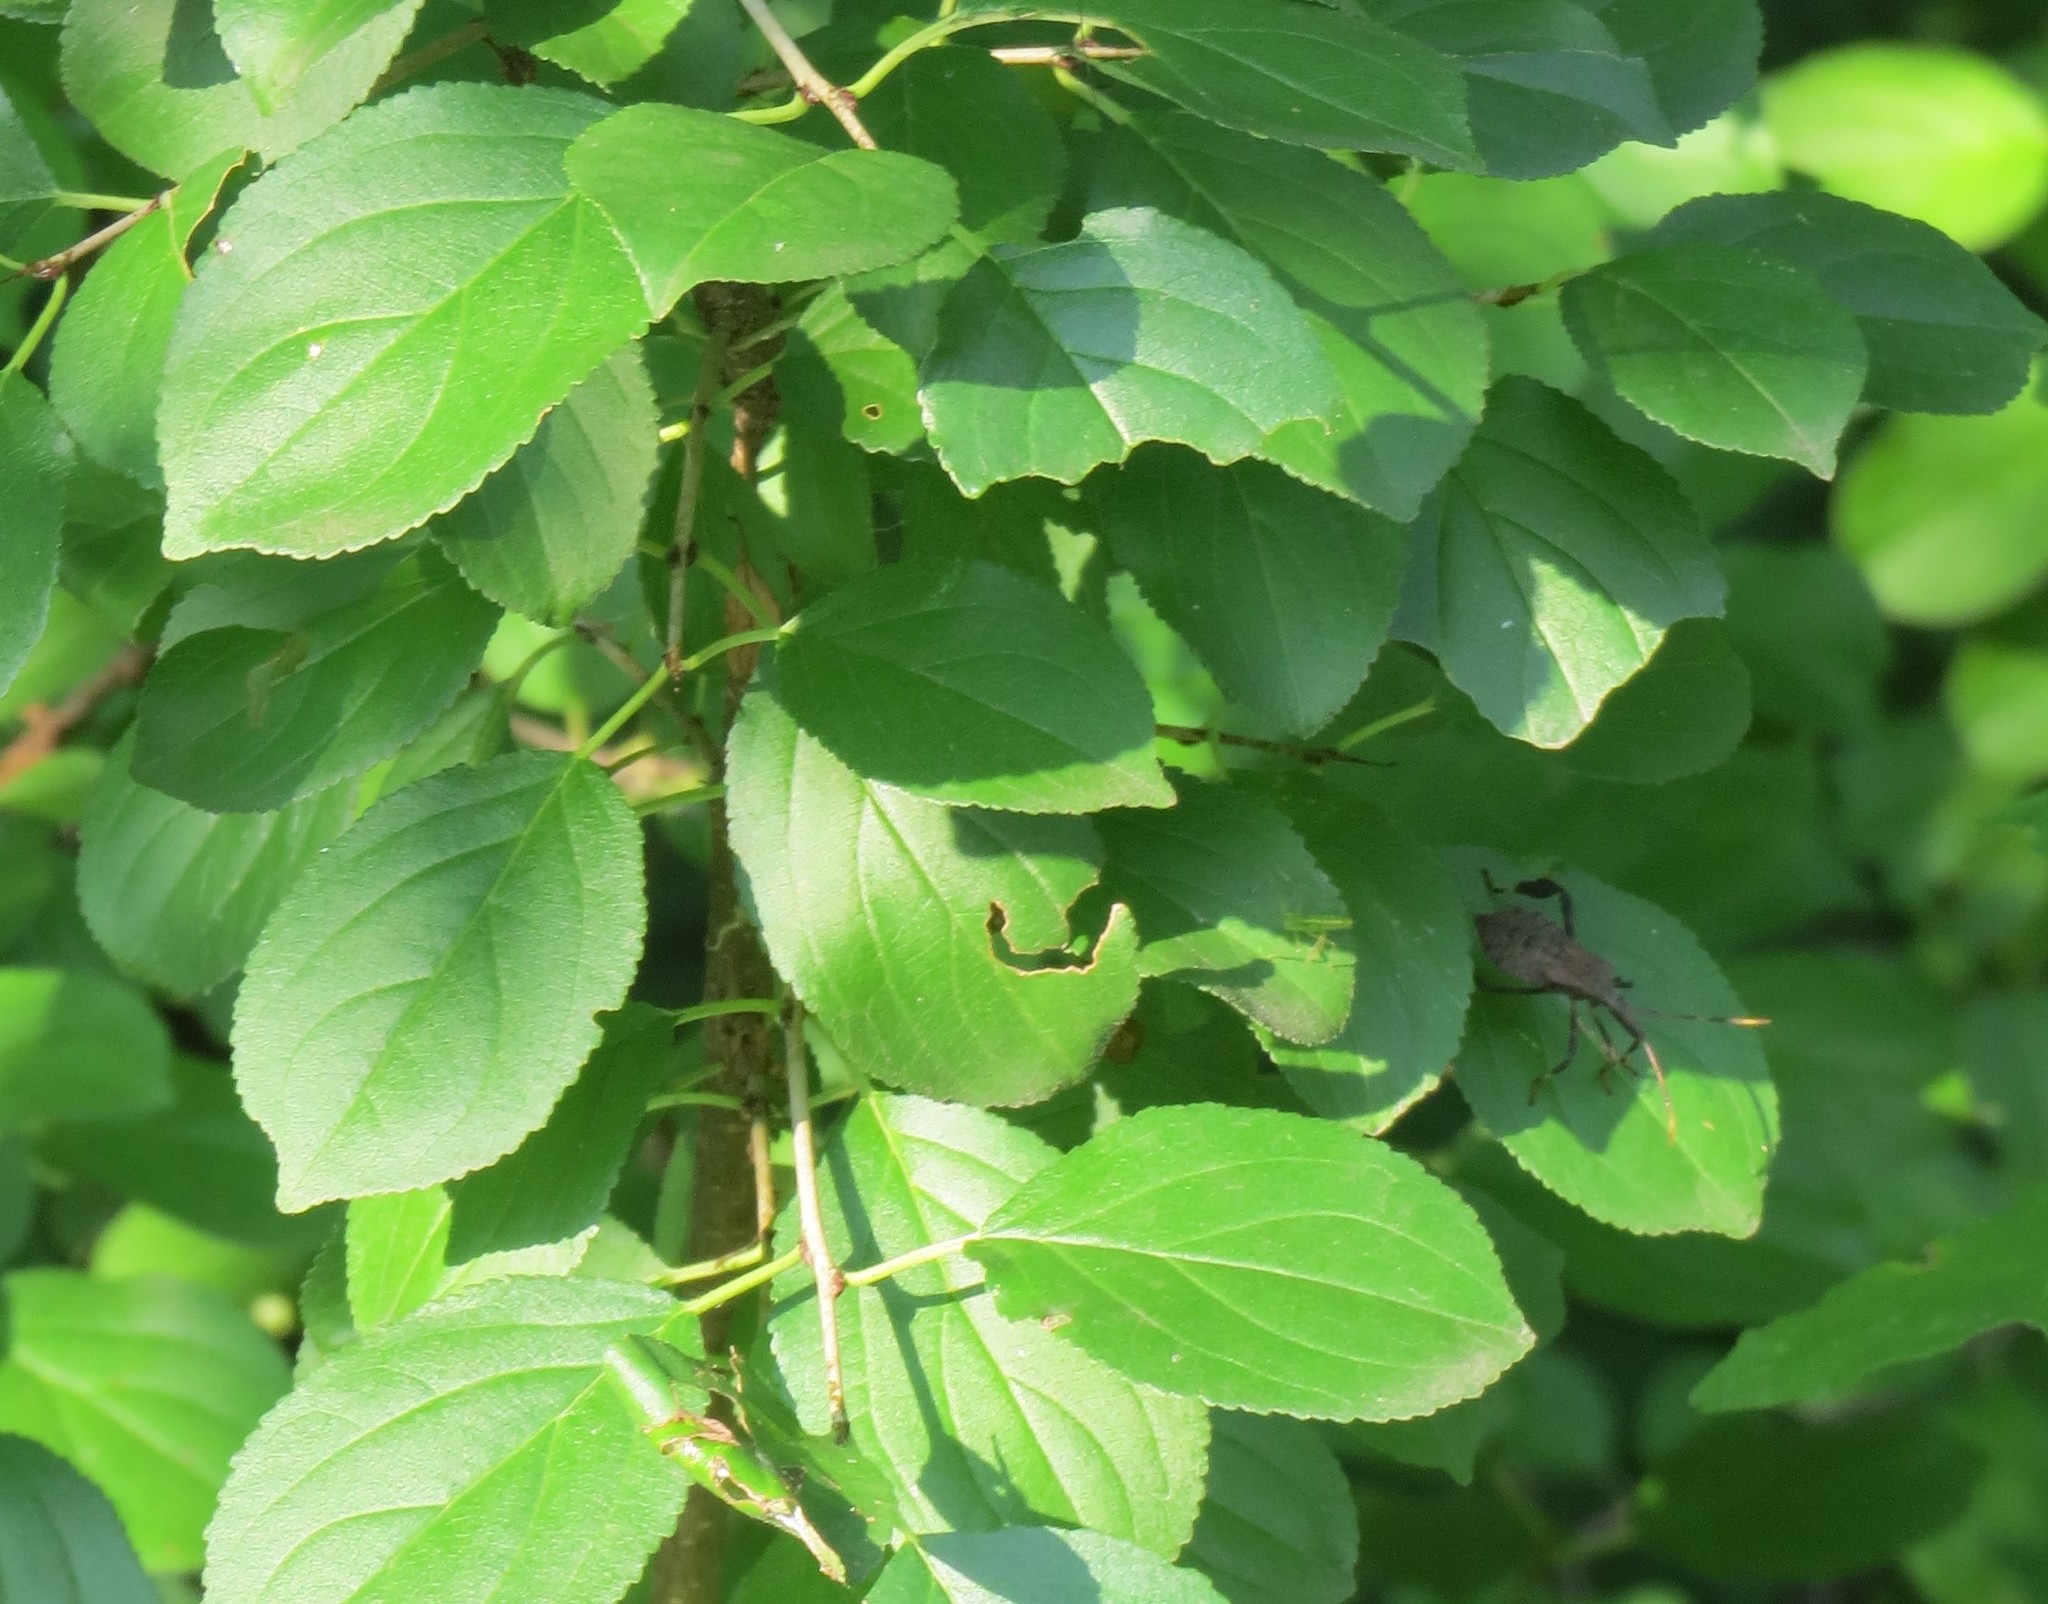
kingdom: Animalia
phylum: Arthropoda
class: Insecta
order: Hemiptera
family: Coreidae
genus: Acanthocephala
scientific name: Acanthocephala terminalis
